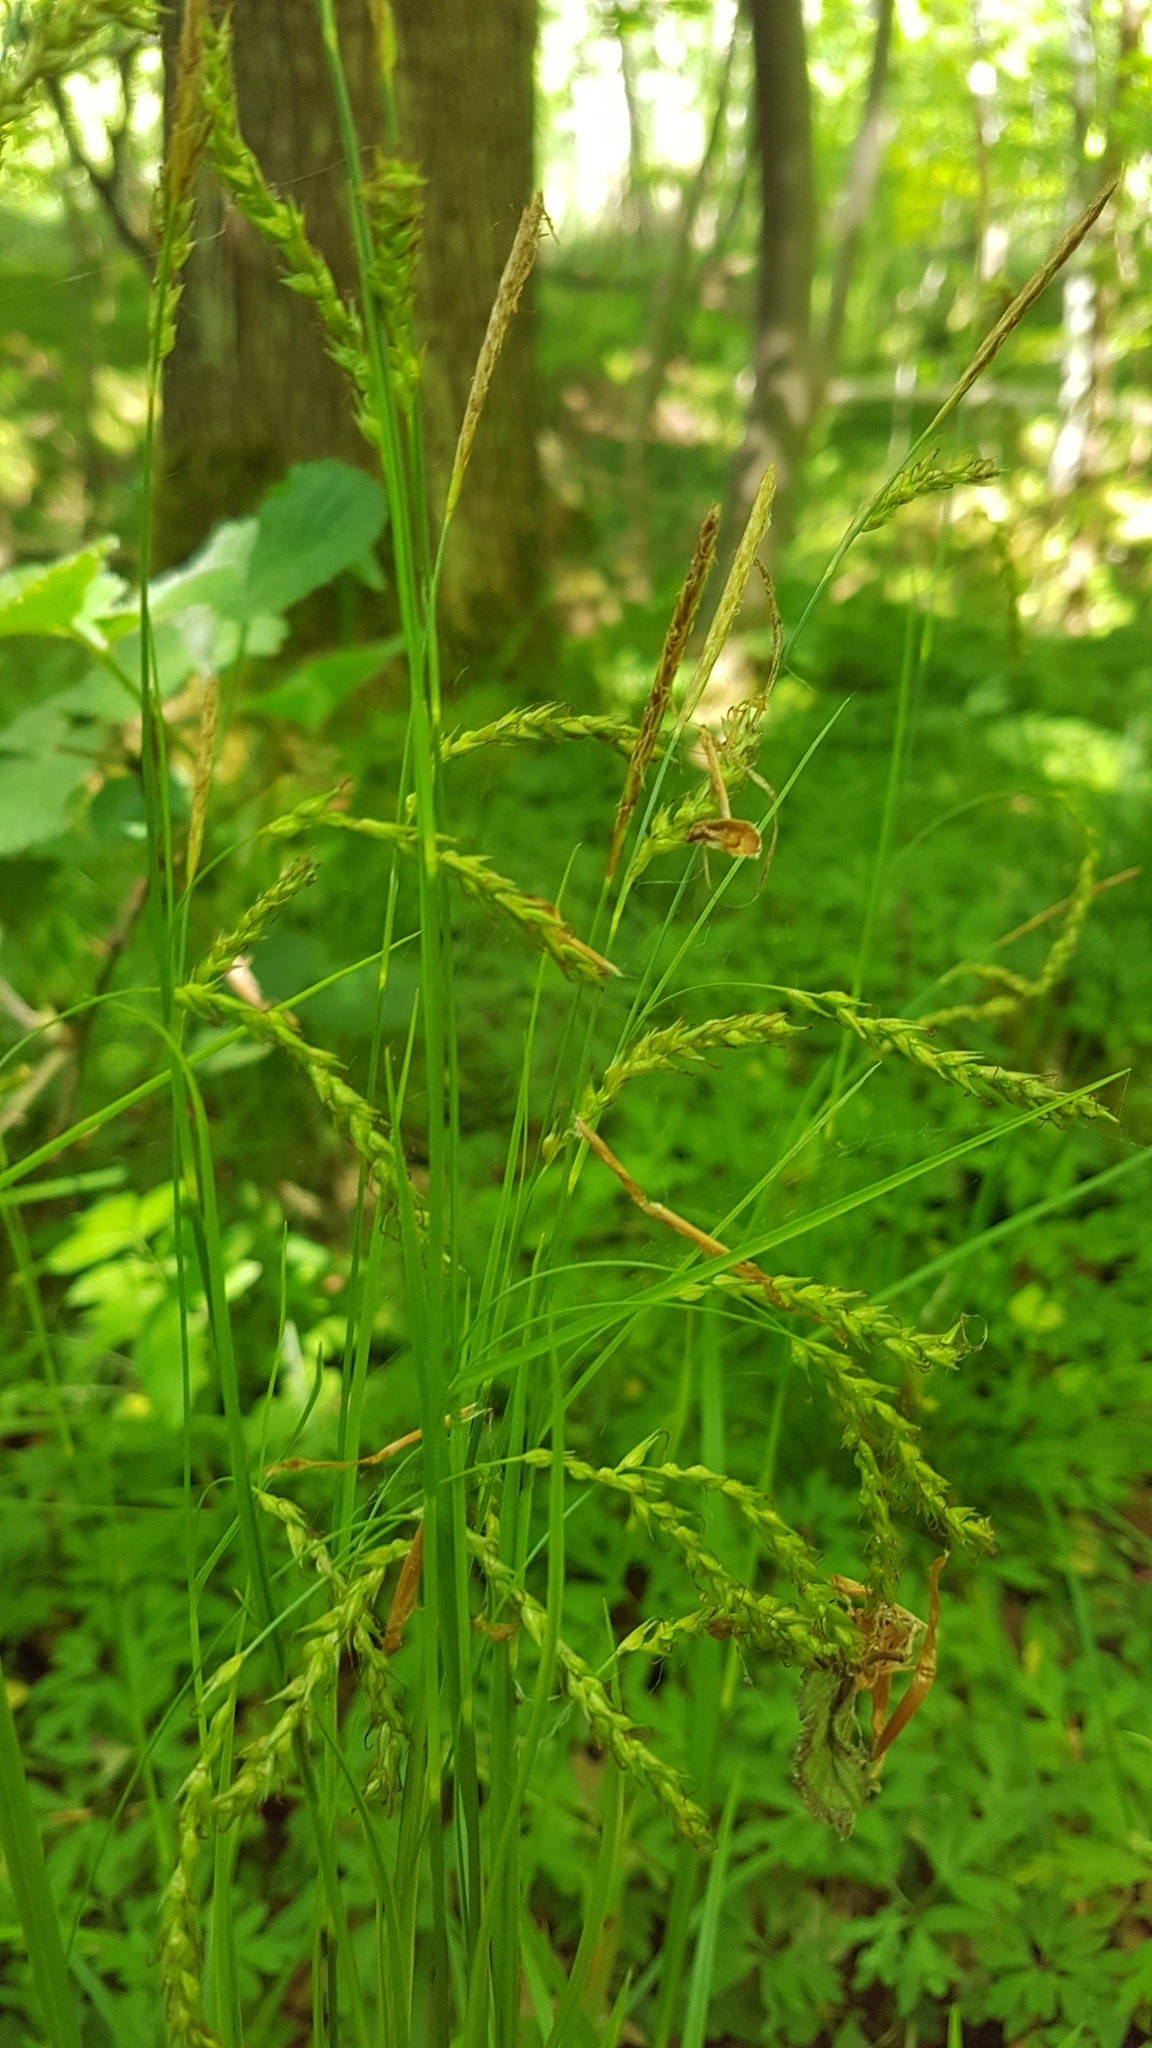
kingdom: Plantae
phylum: Tracheophyta
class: Liliopsida
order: Poales
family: Cyperaceae
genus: Carex
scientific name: Carex sylvatica
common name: Wood-sedge
